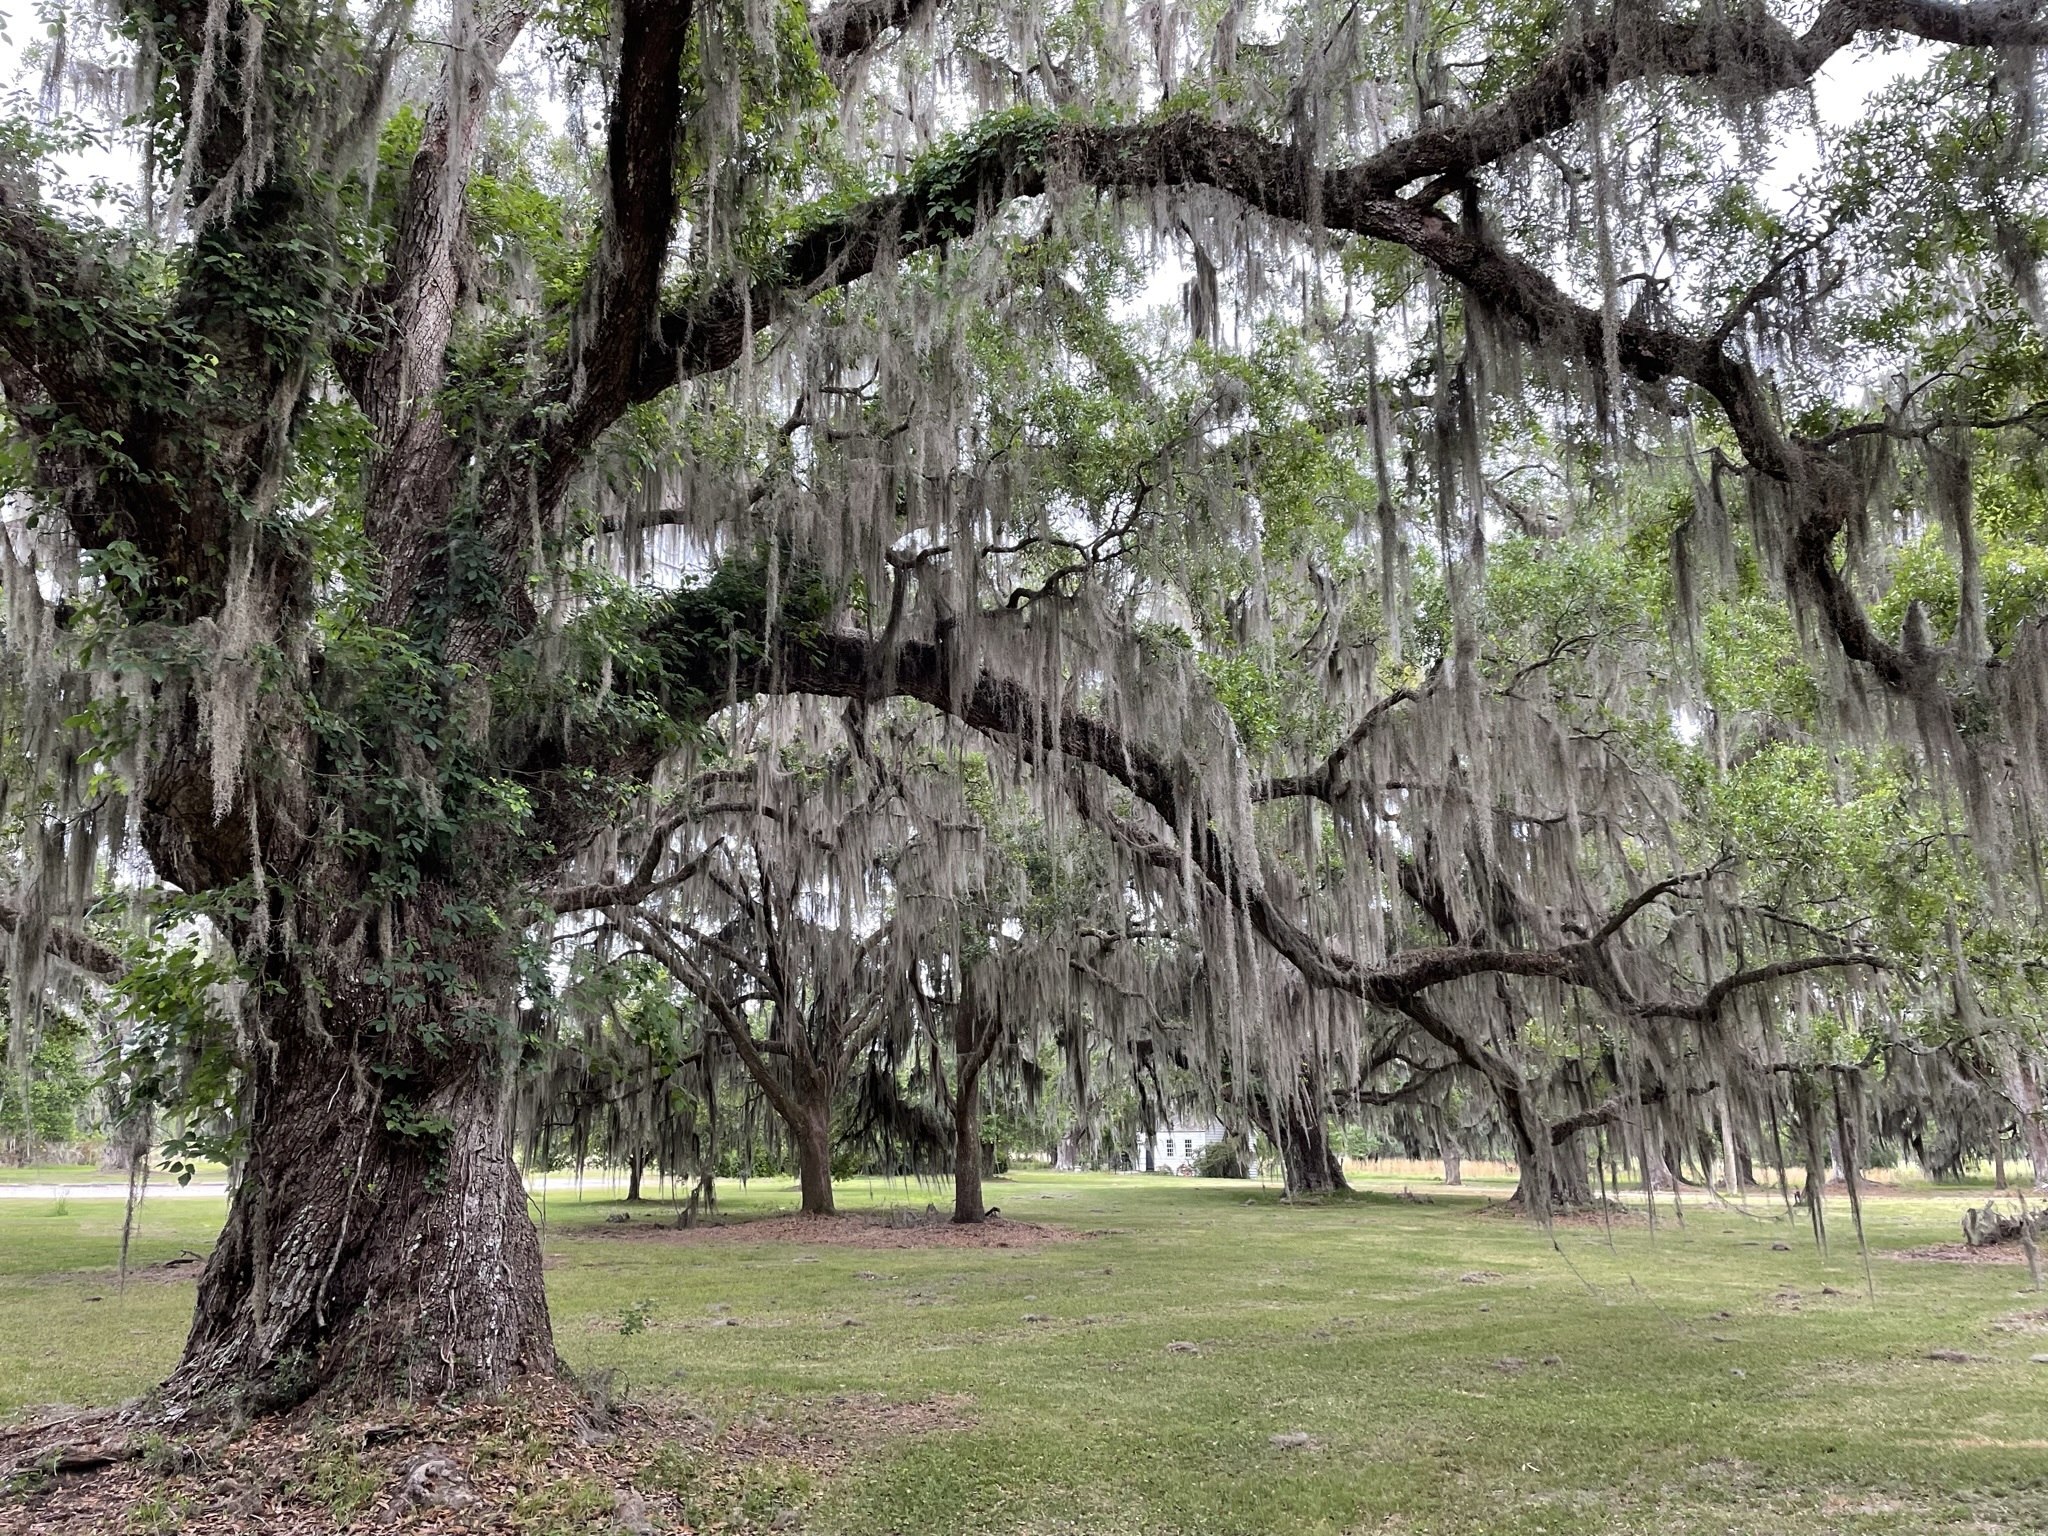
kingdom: Plantae
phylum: Tracheophyta
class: Liliopsida
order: Poales
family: Bromeliaceae
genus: Tillandsia
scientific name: Tillandsia usneoides
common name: Spanish moss
